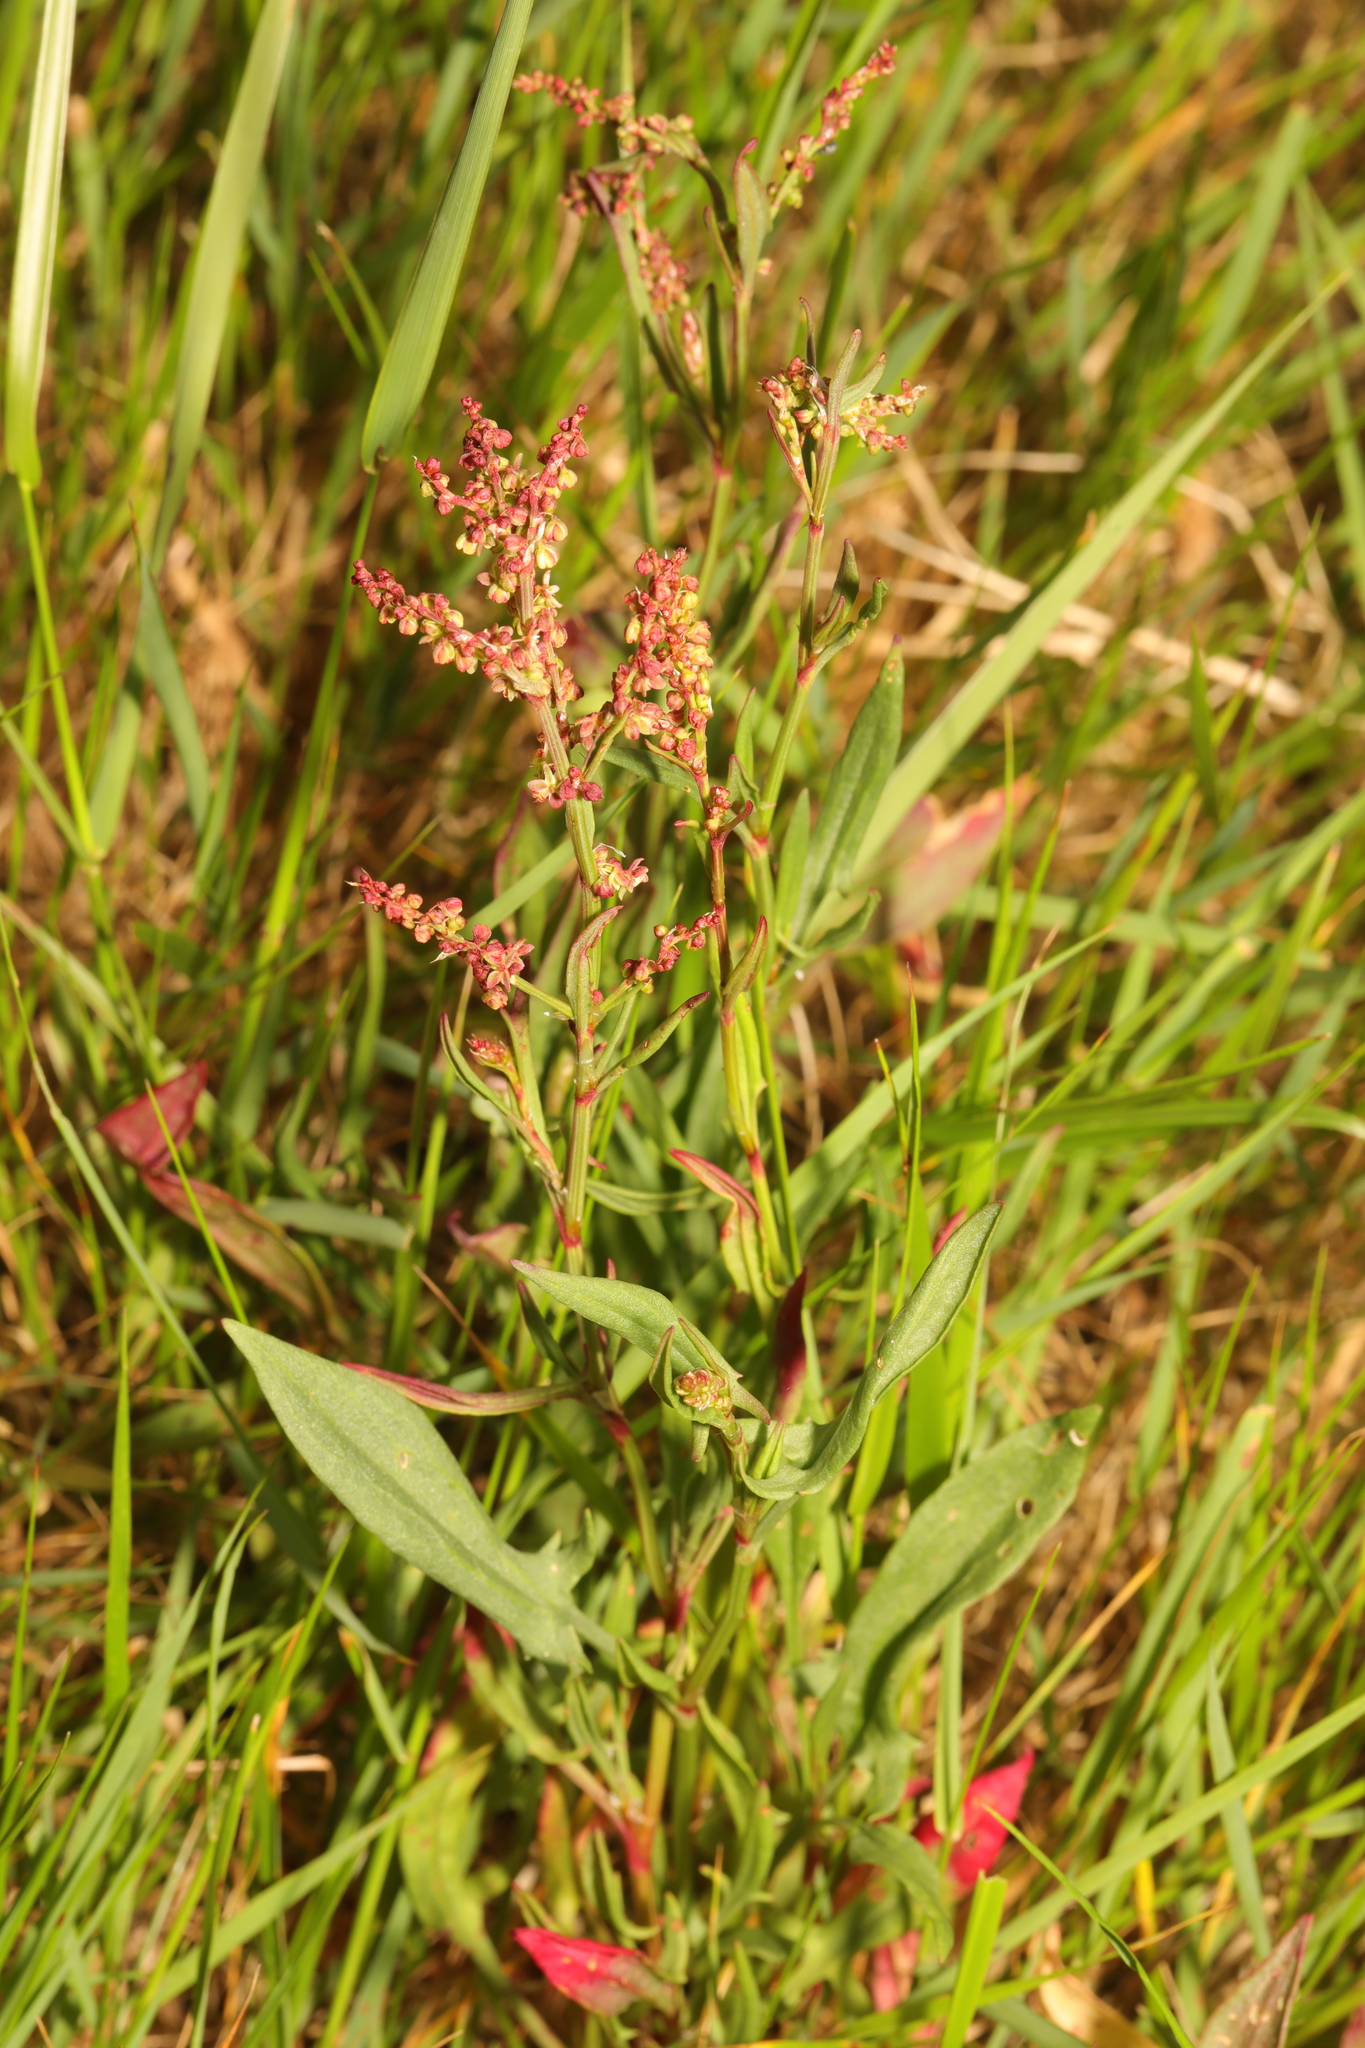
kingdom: Plantae
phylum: Tracheophyta
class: Magnoliopsida
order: Caryophyllales
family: Polygonaceae
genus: Rumex
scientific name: Rumex acetosella
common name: Common sheep sorrel
